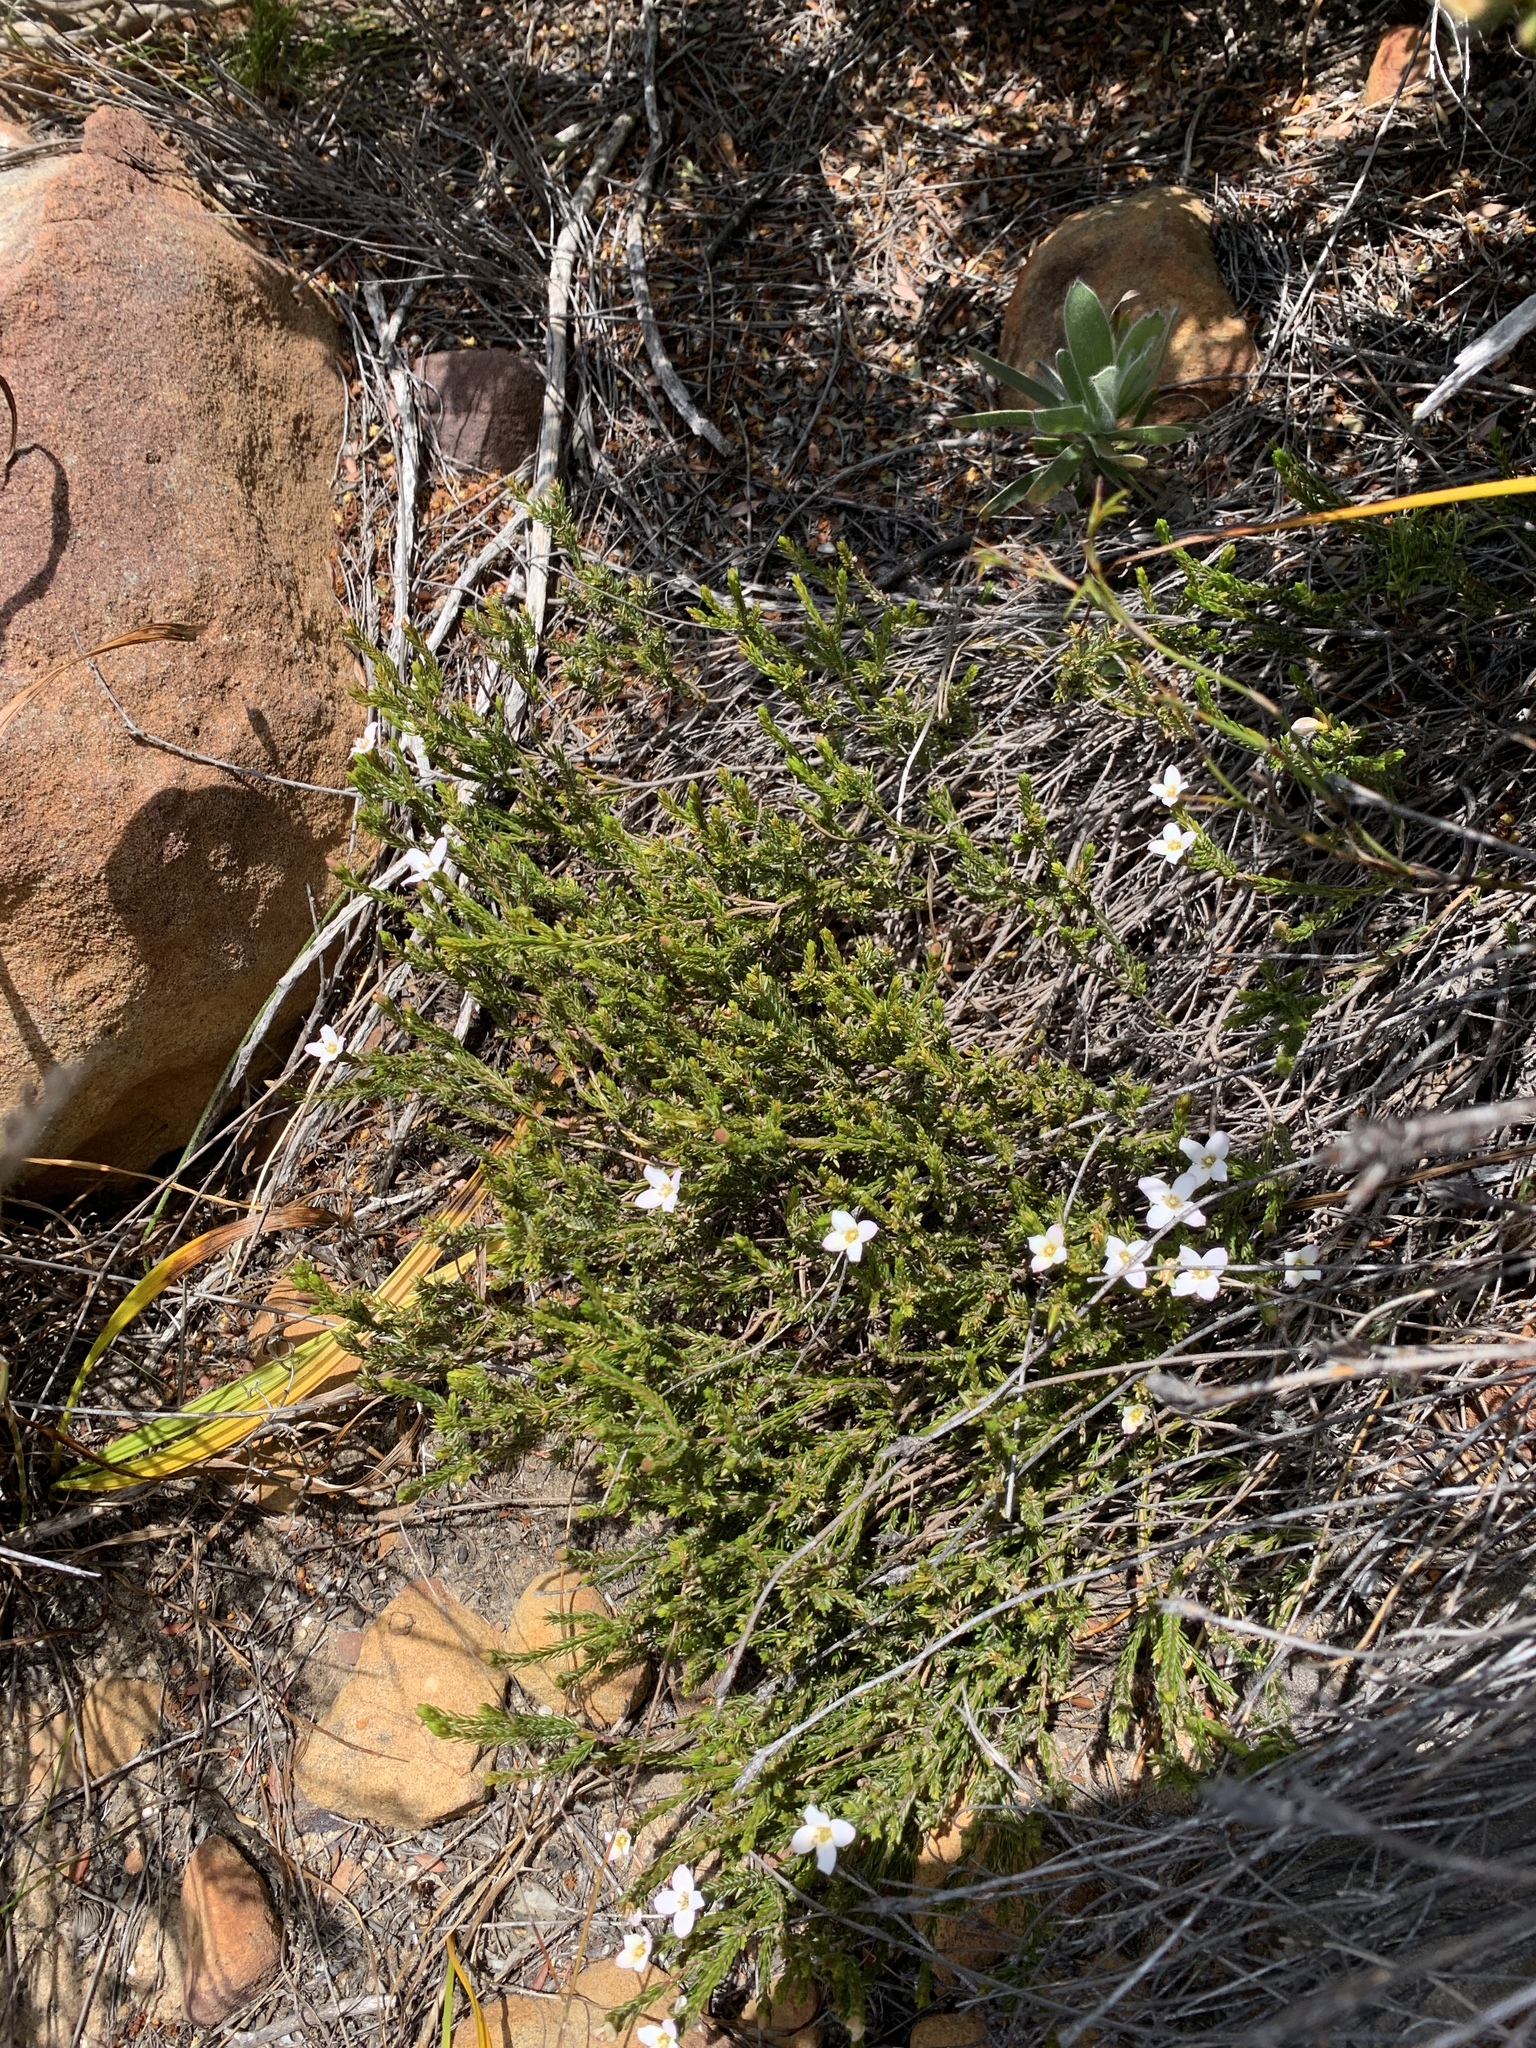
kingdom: Plantae
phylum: Tracheophyta
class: Magnoliopsida
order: Malvales
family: Thymelaeaceae
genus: Lachnaea
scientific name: Lachnaea grandiflora
